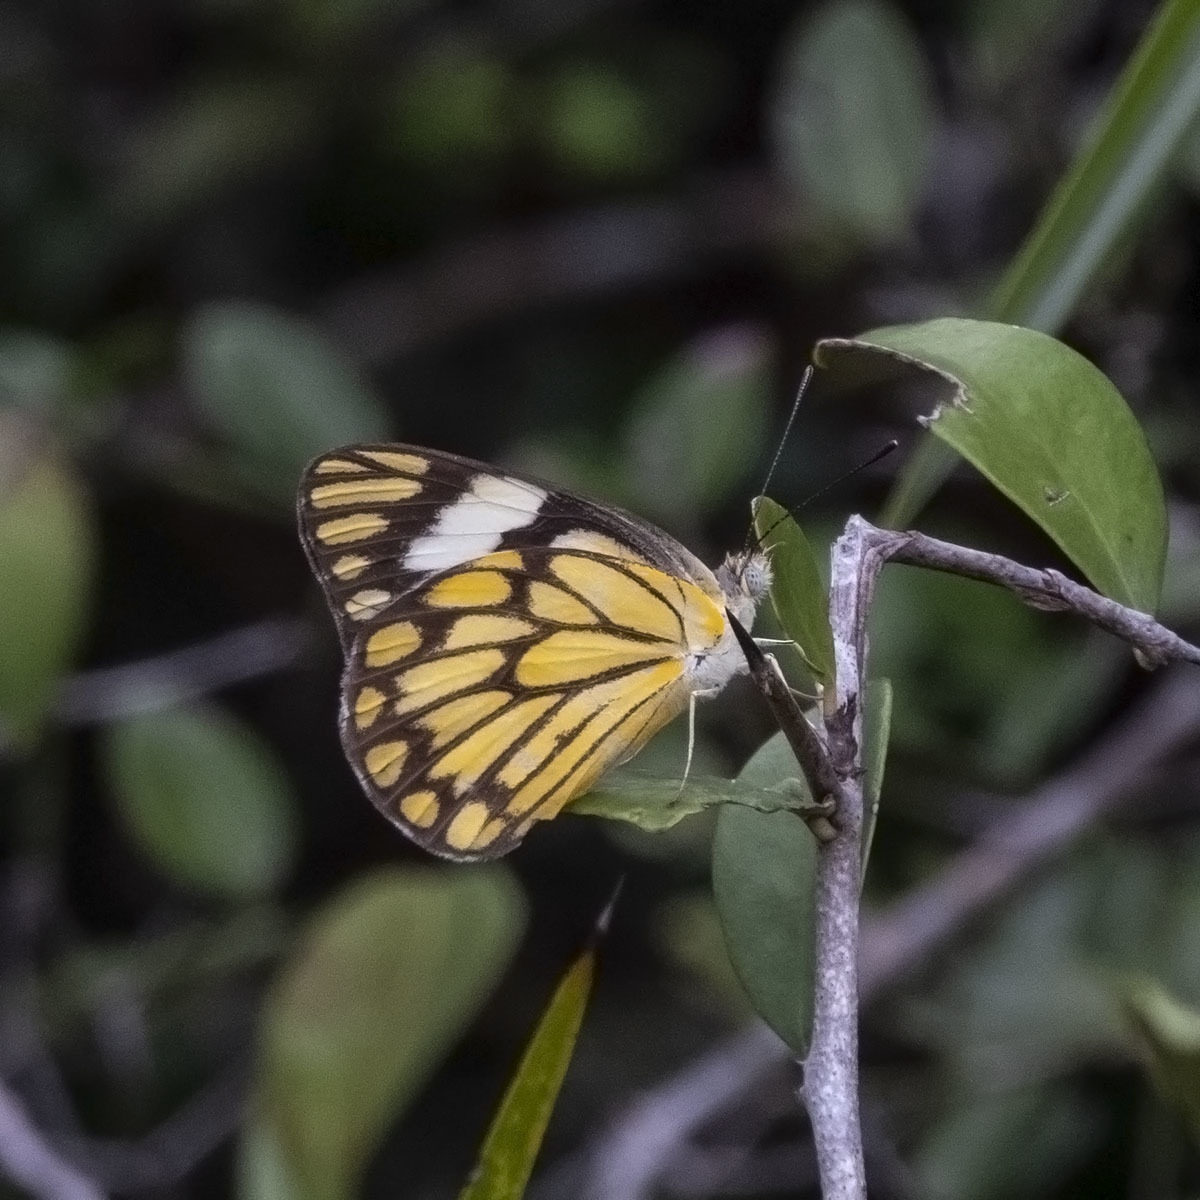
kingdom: Animalia
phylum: Arthropoda
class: Insecta
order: Lepidoptera
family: Pieridae
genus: Belenois
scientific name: Belenois aurota
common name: Brown-veined white
